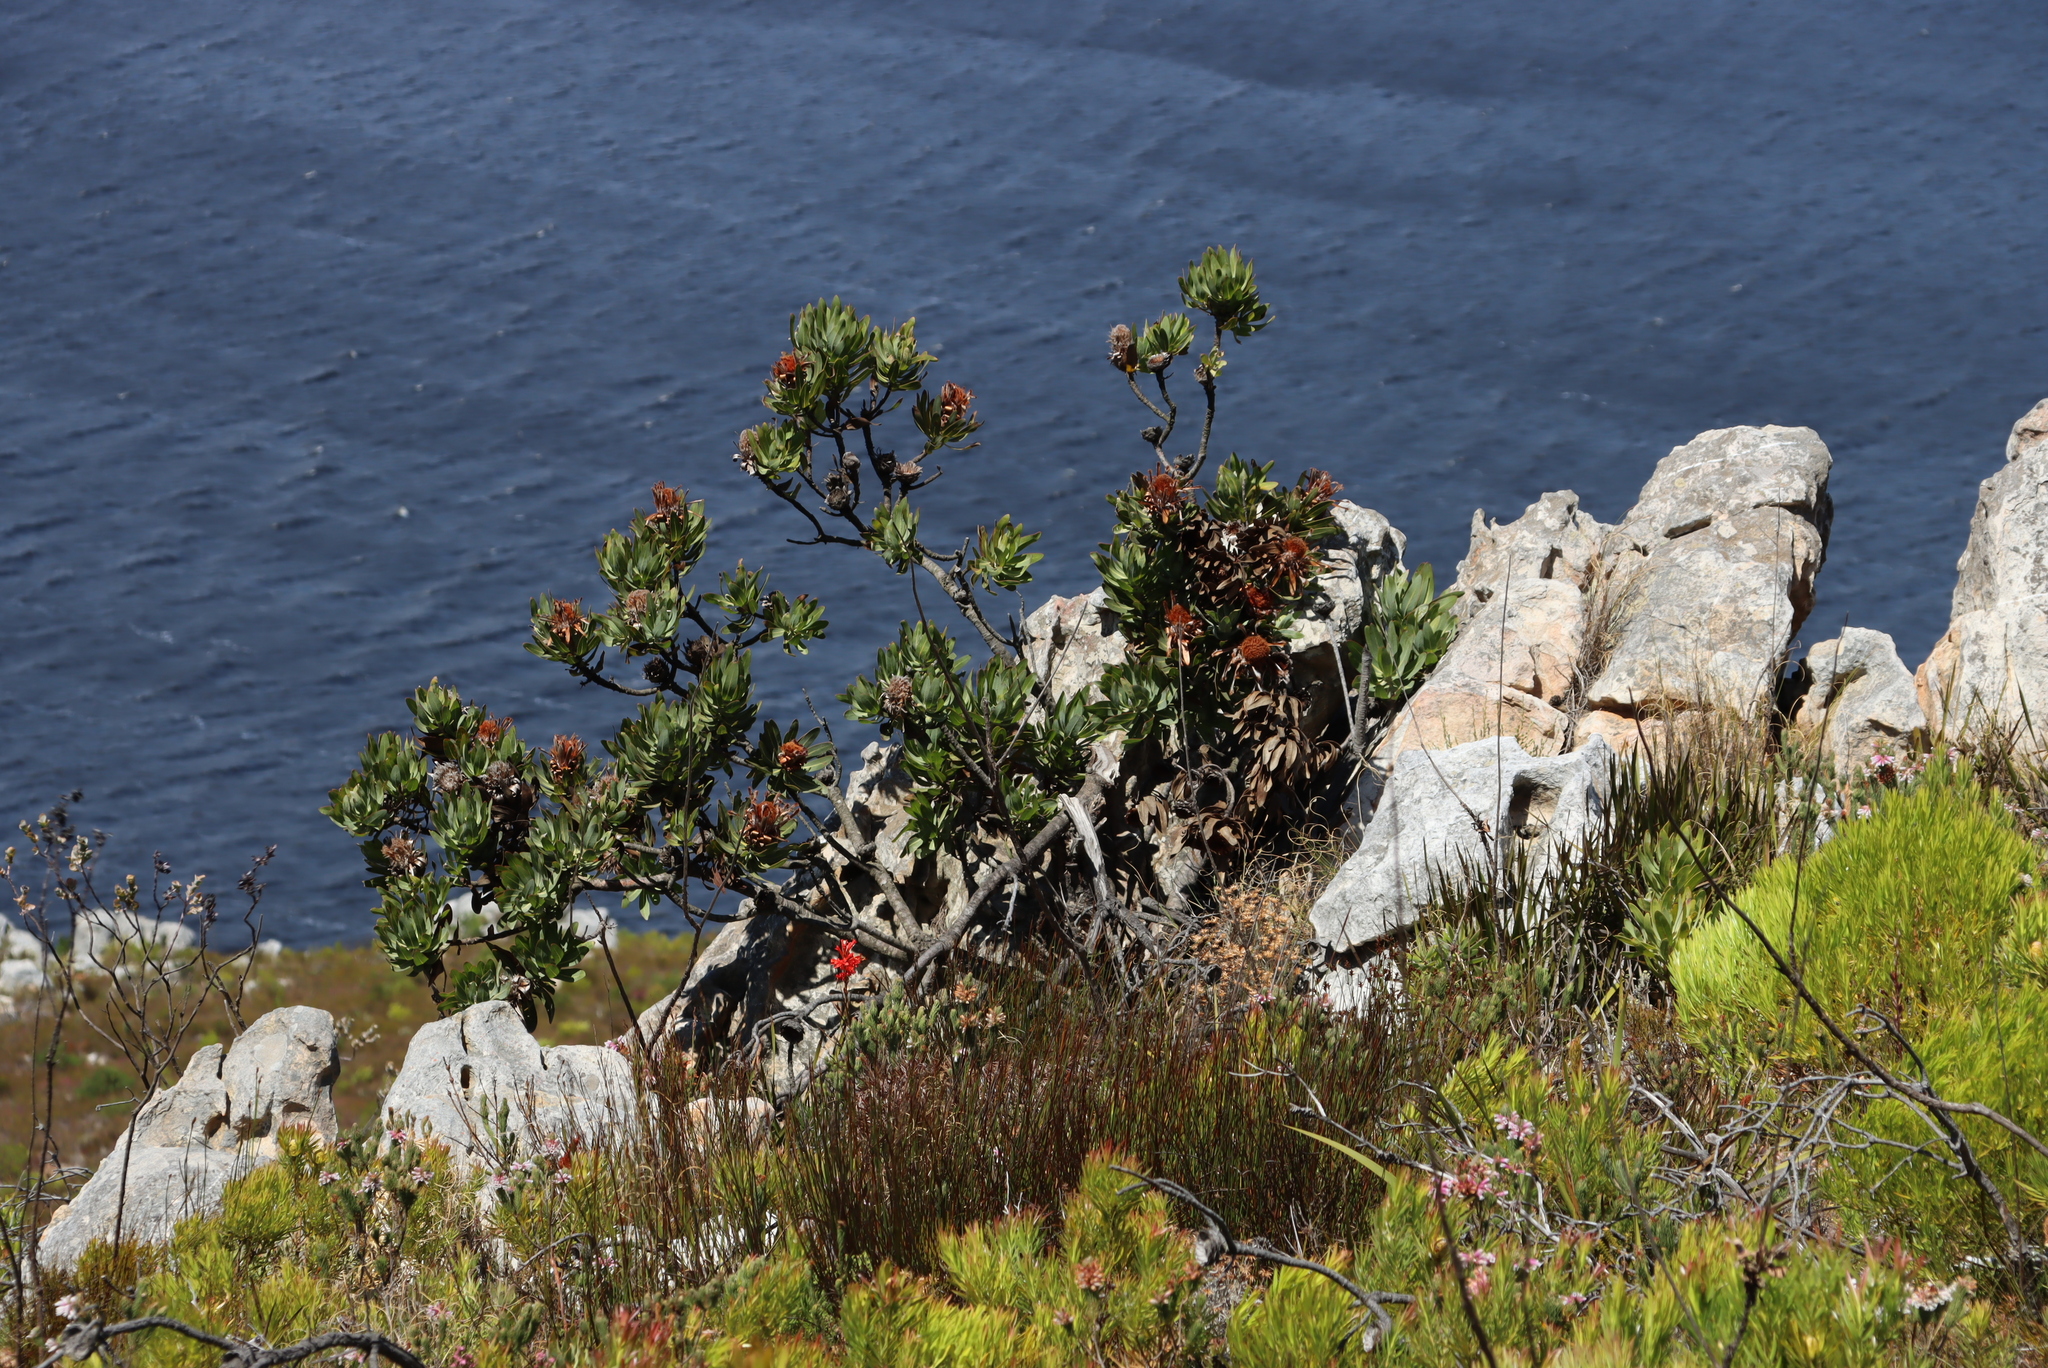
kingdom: Plantae
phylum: Tracheophyta
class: Magnoliopsida
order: Proteales
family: Proteaceae
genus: Protea
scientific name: Protea neriifolia
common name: Blue sugarbush
